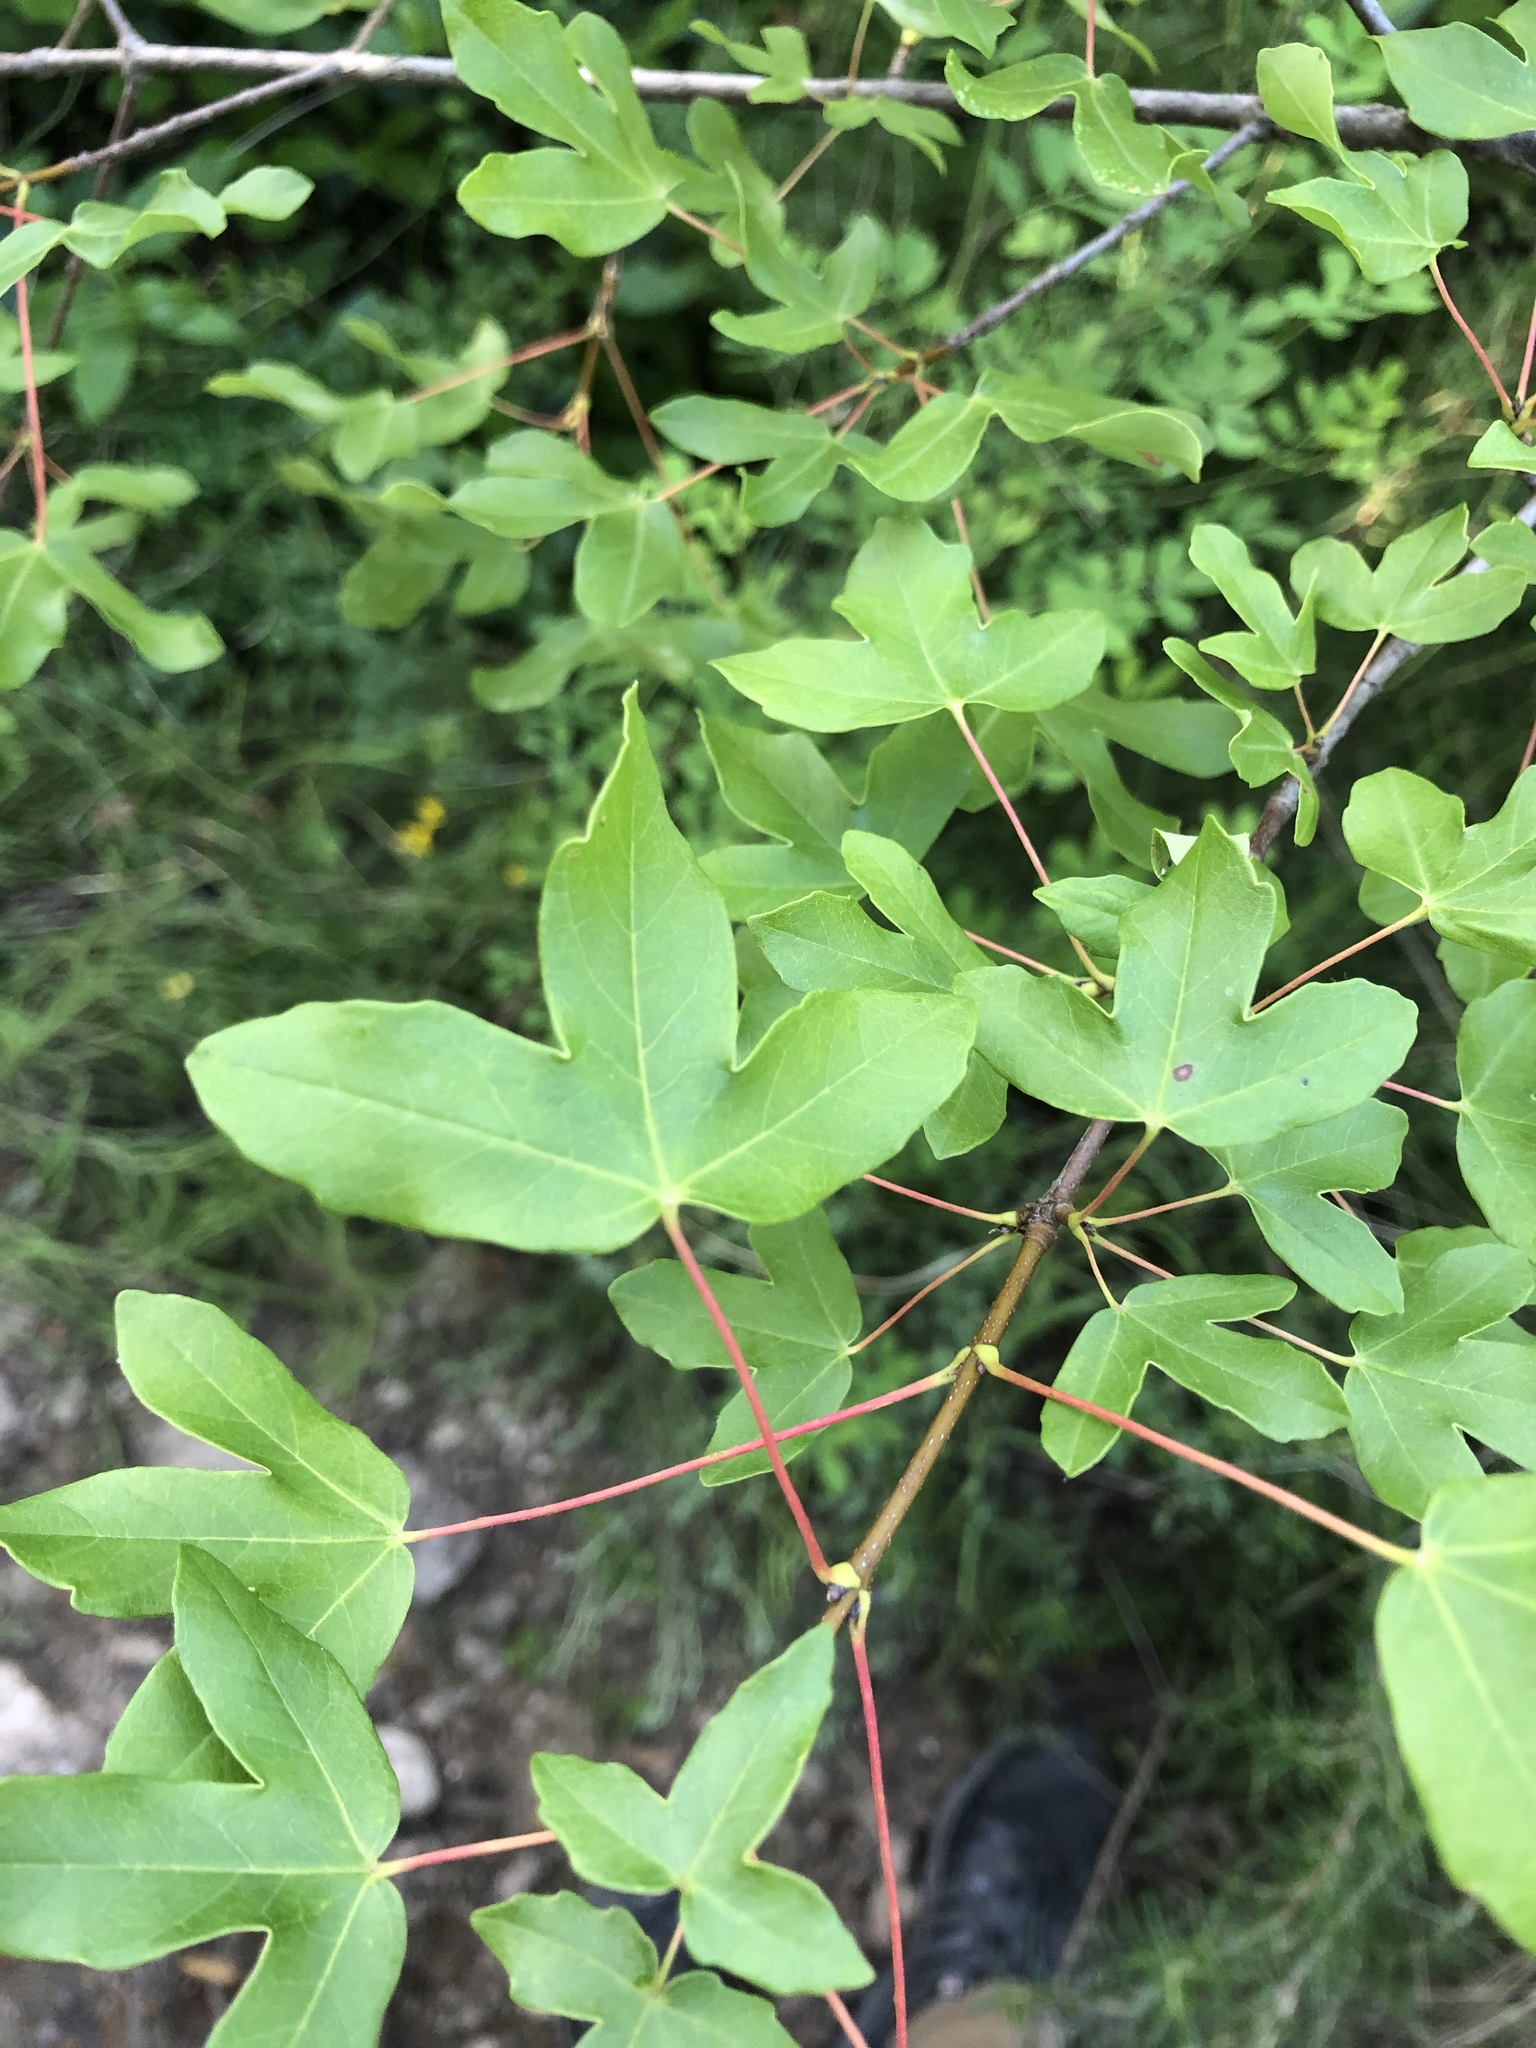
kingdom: Plantae
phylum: Tracheophyta
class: Magnoliopsida
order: Sapindales
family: Sapindaceae
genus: Acer
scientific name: Acer monspessulanum
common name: Montpellier maple
